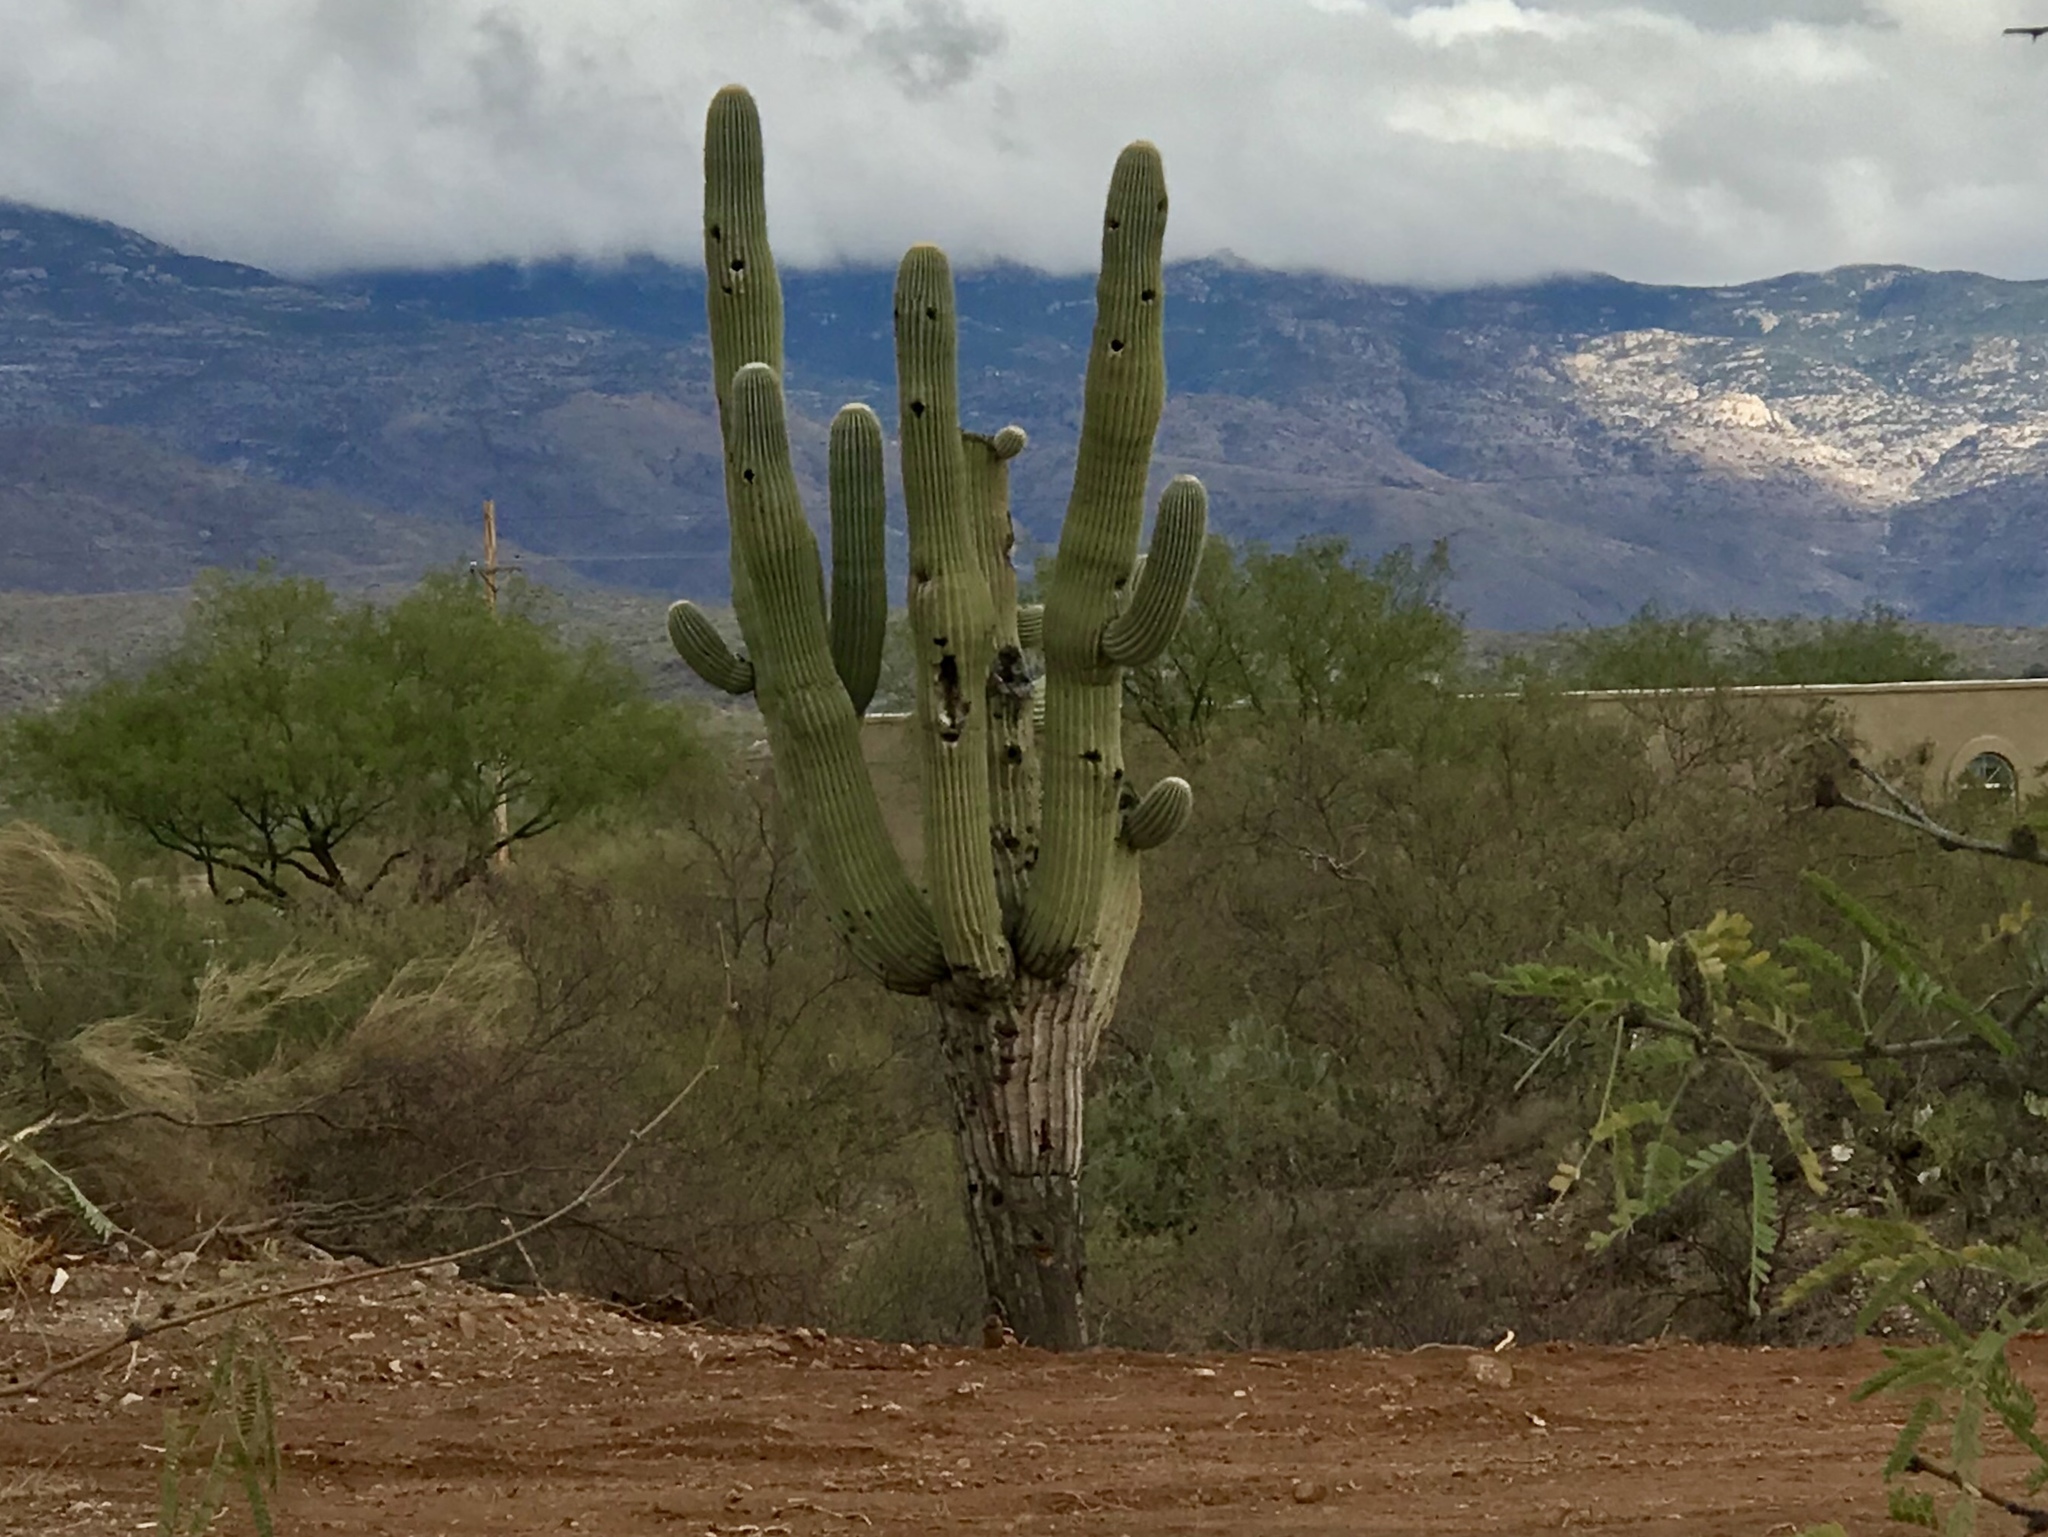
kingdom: Plantae
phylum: Tracheophyta
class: Magnoliopsida
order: Caryophyllales
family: Cactaceae
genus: Carnegiea
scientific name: Carnegiea gigantea
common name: Saguaro
